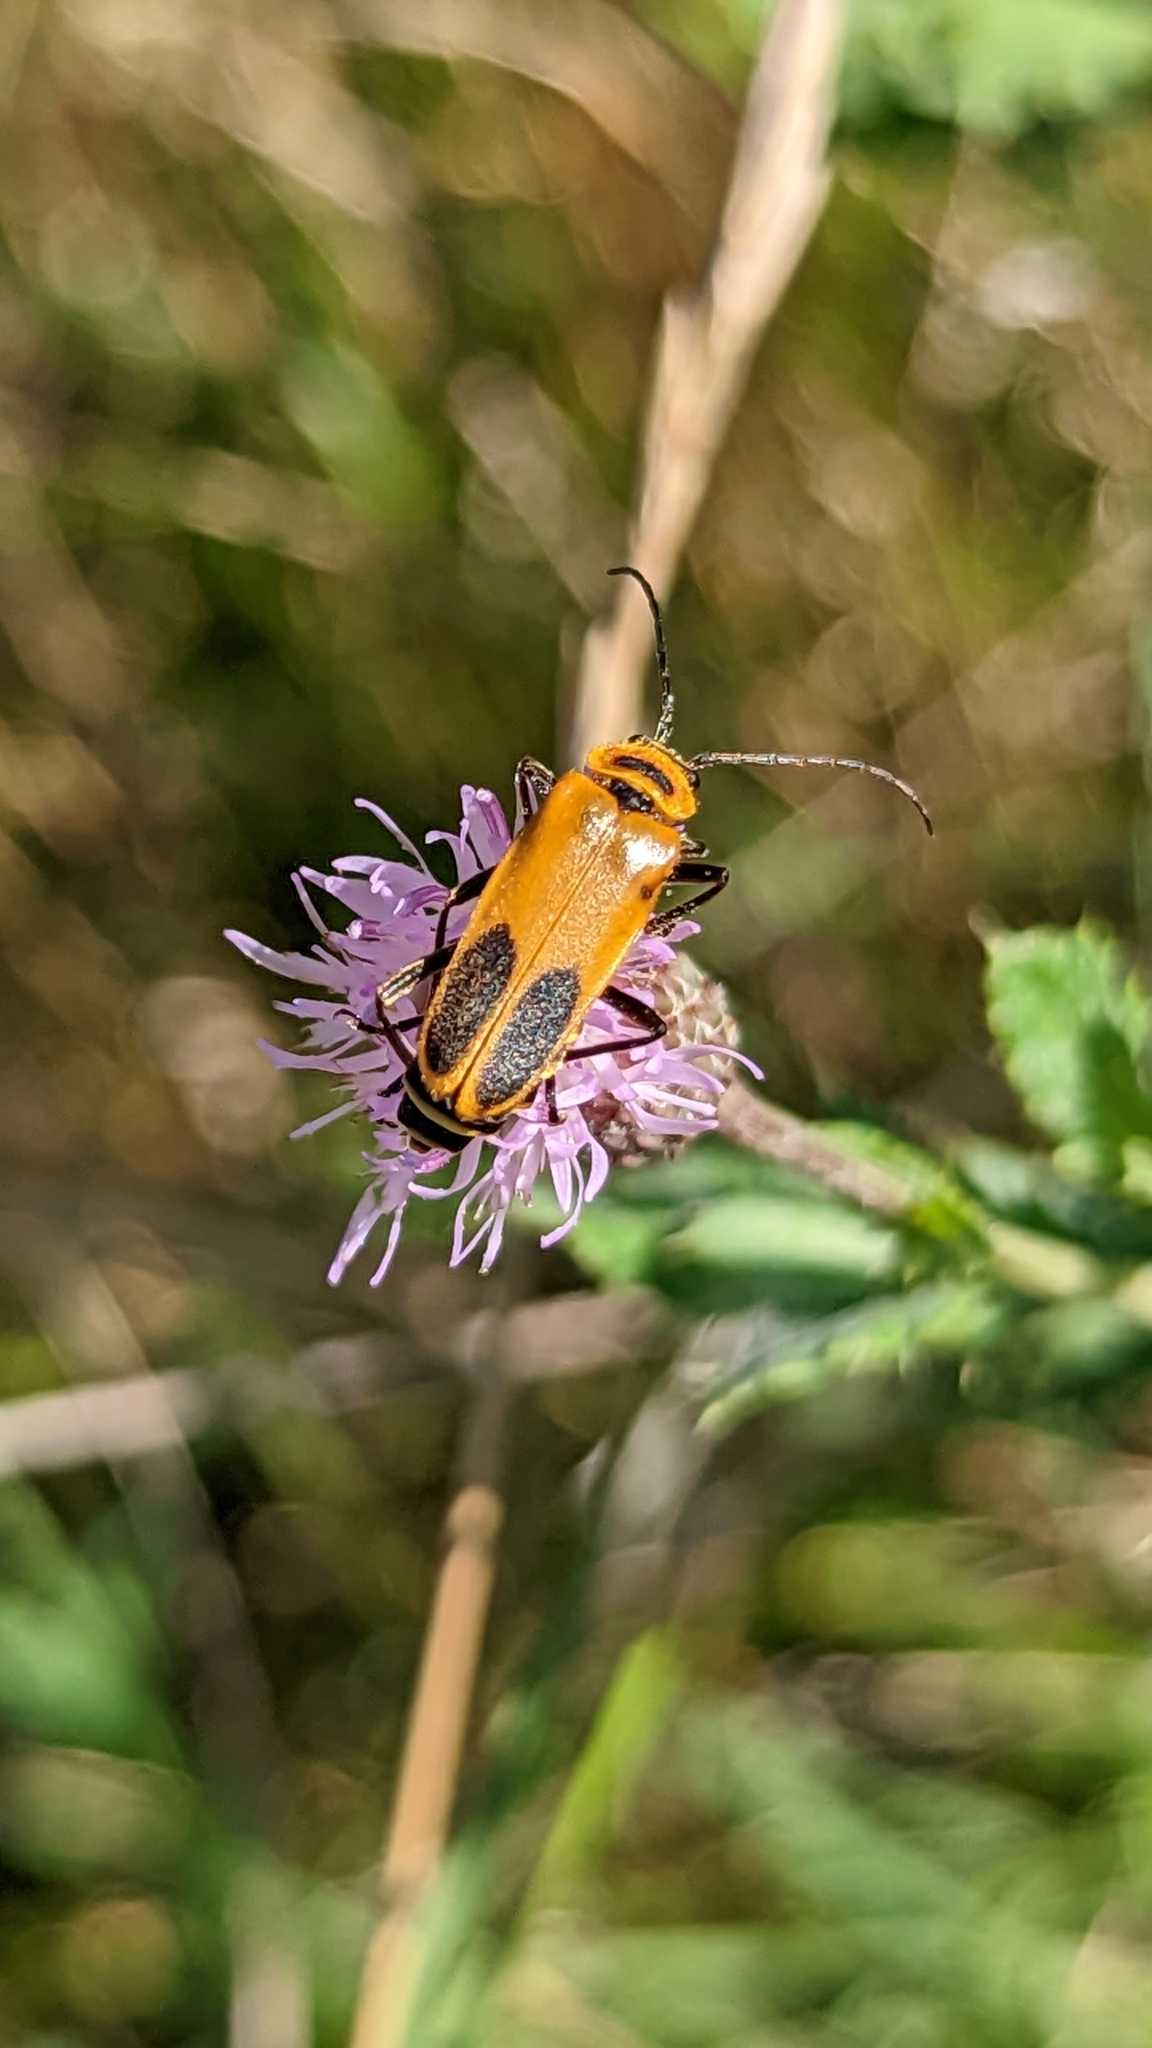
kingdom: Animalia
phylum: Arthropoda
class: Insecta
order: Coleoptera
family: Cantharidae
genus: Chauliognathus
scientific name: Chauliognathus pensylvanicus
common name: Goldenrod soldier beetle
